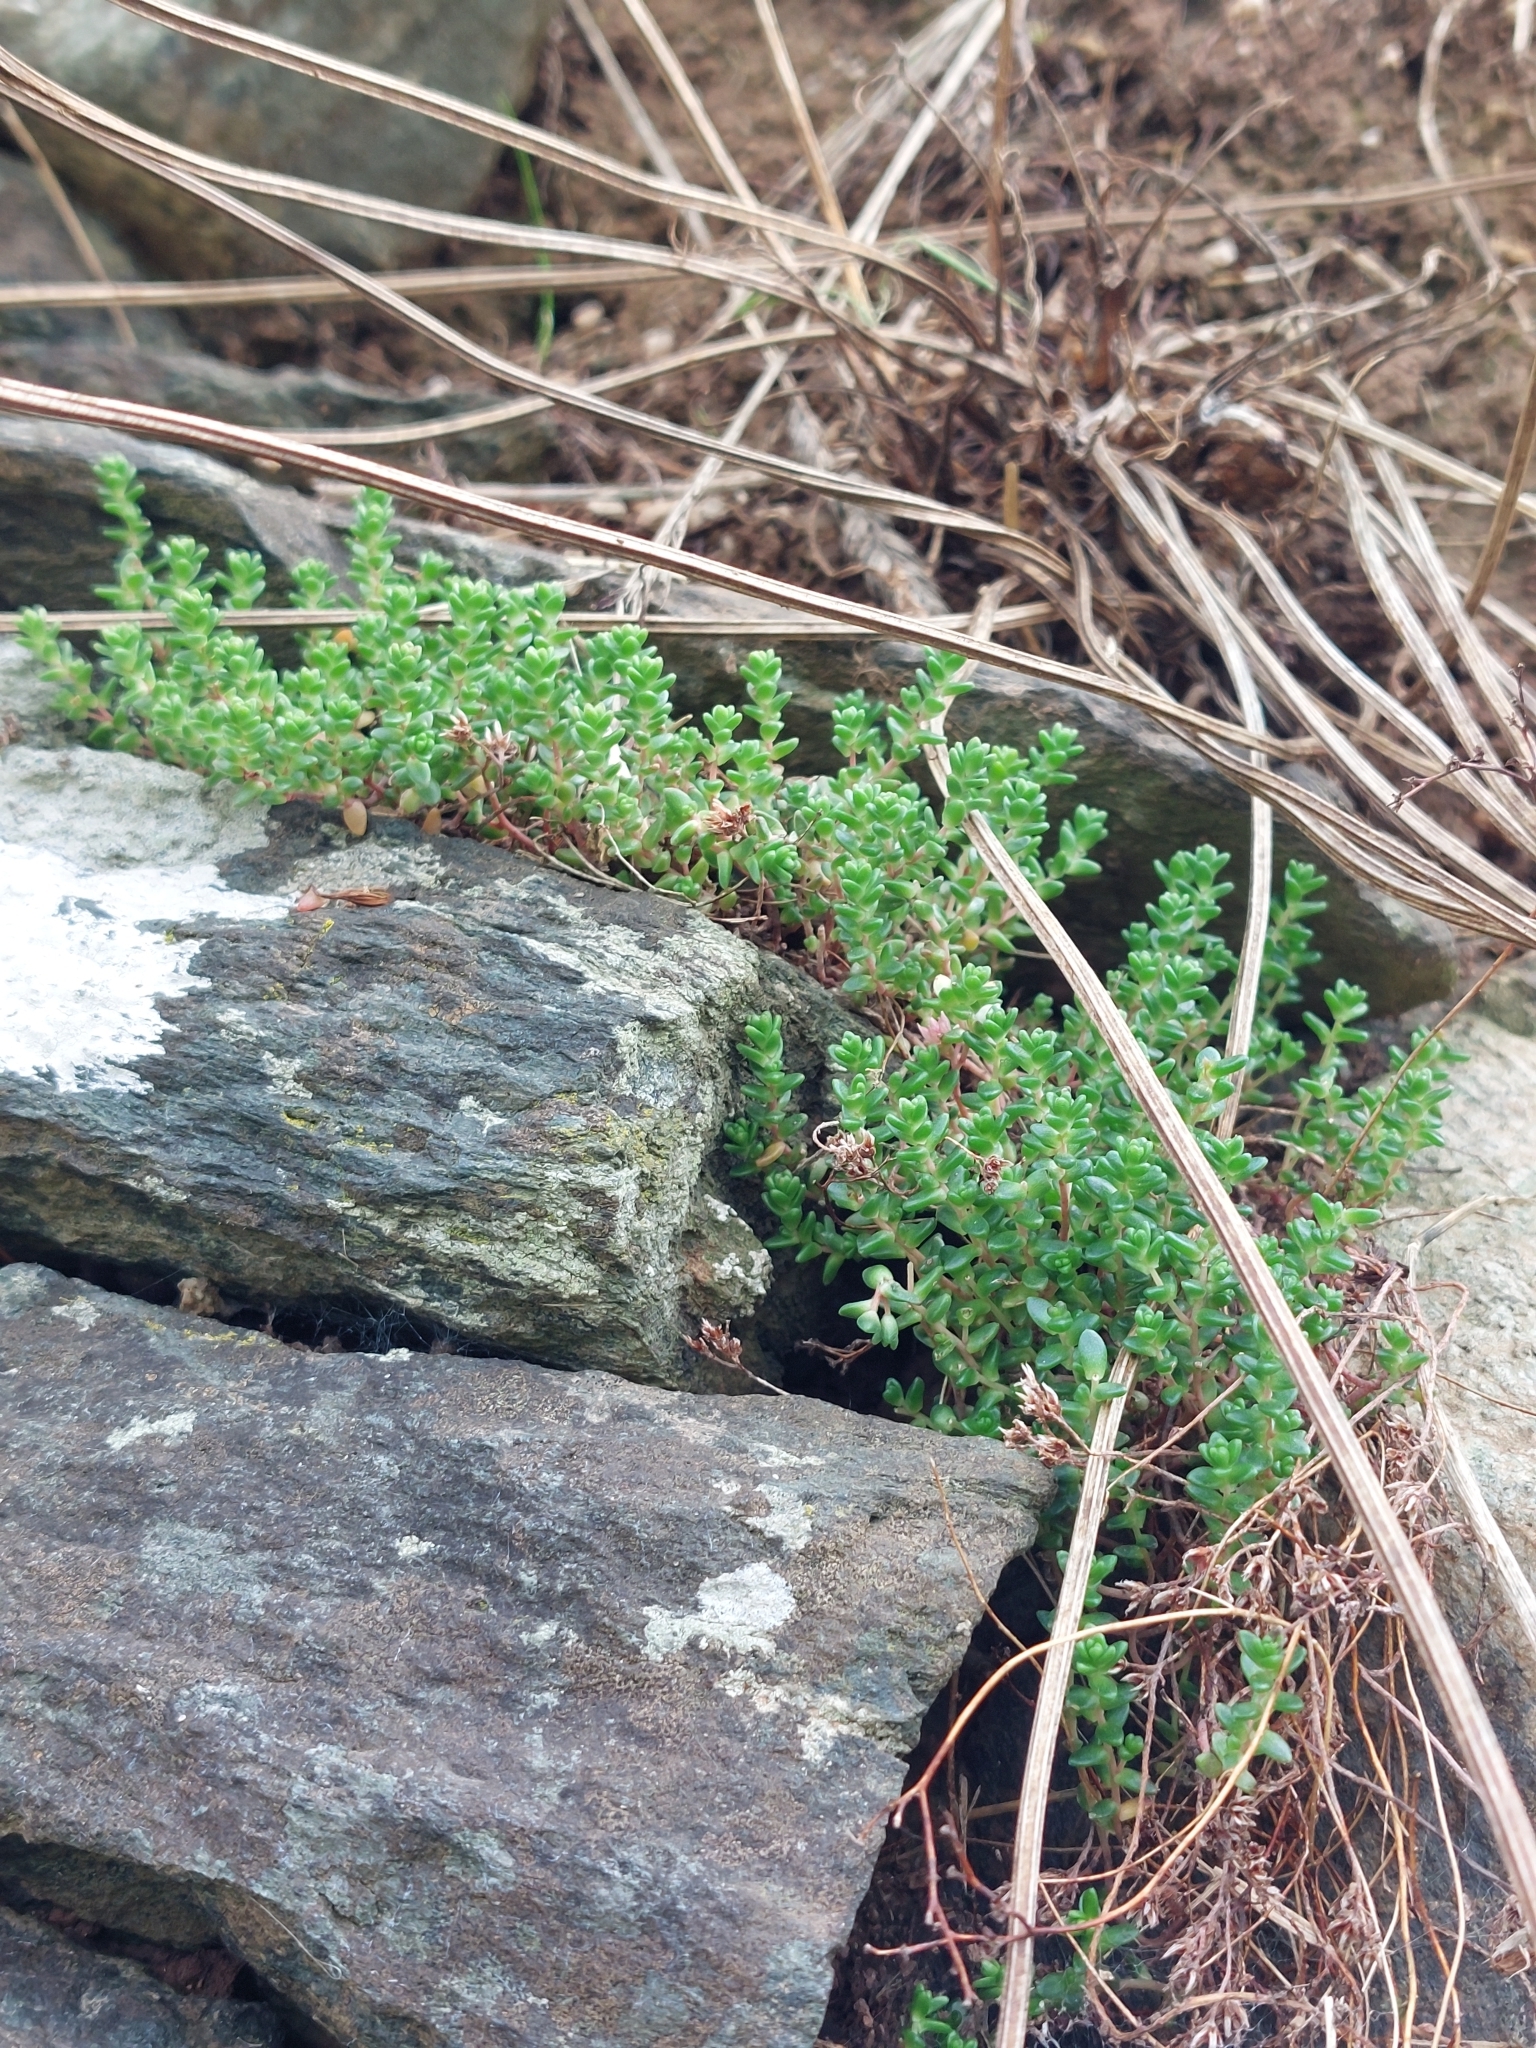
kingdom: Plantae
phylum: Tracheophyta
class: Magnoliopsida
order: Saxifragales
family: Crassulaceae
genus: Sedum
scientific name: Sedum anglicum
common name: English stonecrop
